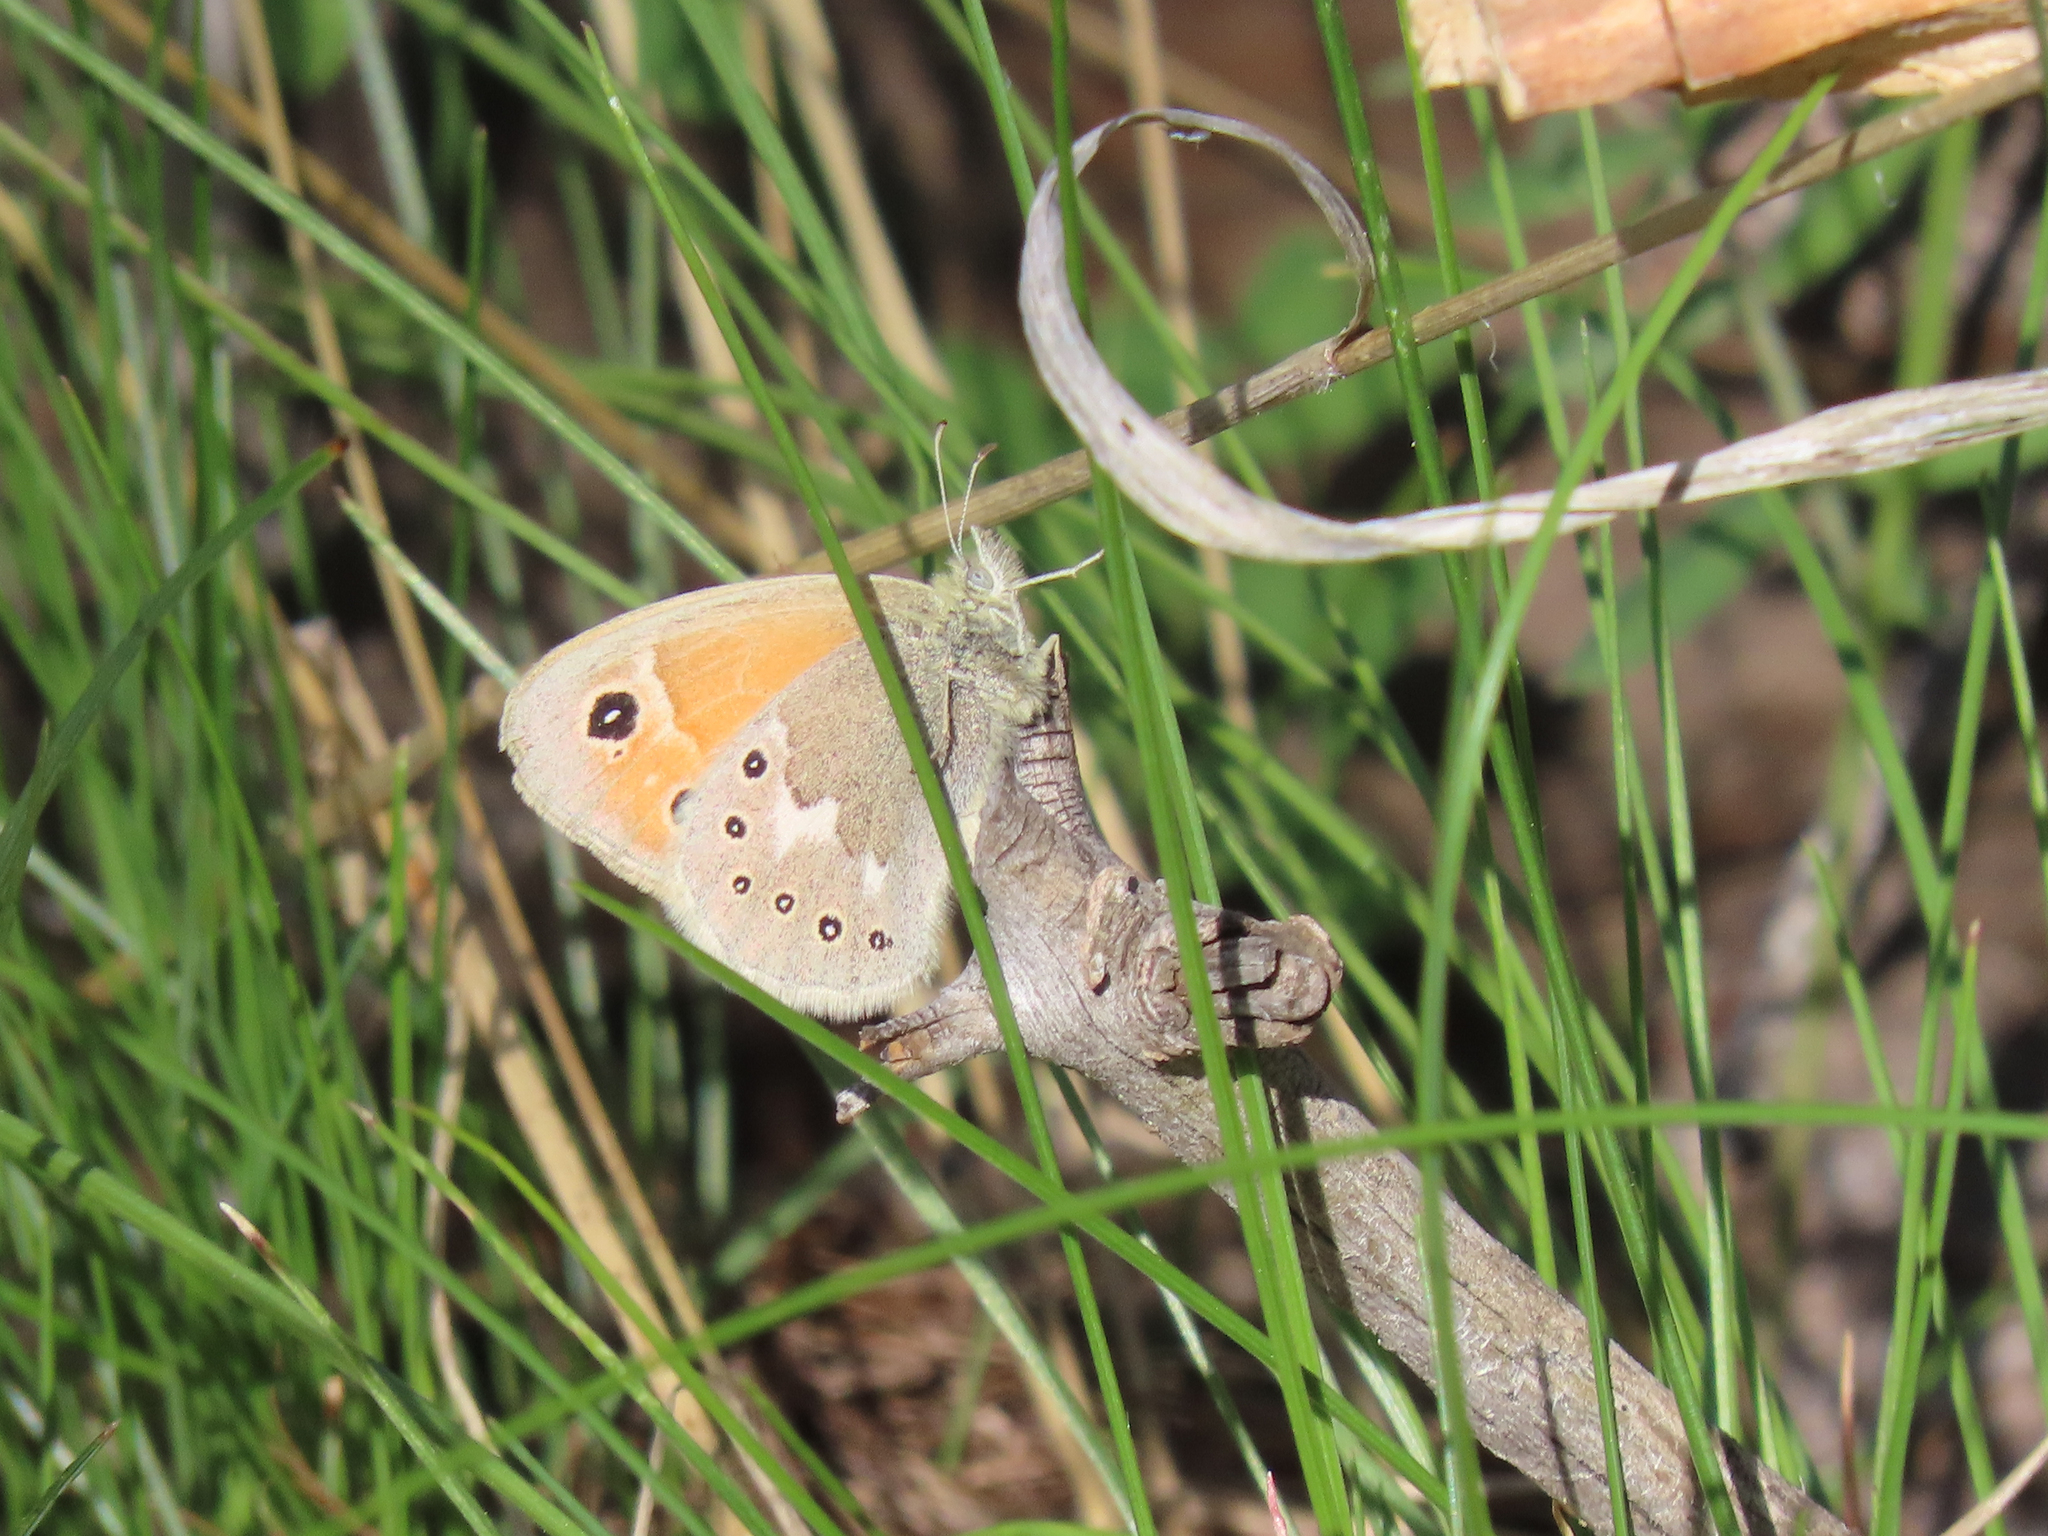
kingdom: Animalia
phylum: Arthropoda
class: Insecta
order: Lepidoptera
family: Nymphalidae
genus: Coenonympha
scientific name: Coenonympha california
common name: Common ringlet
